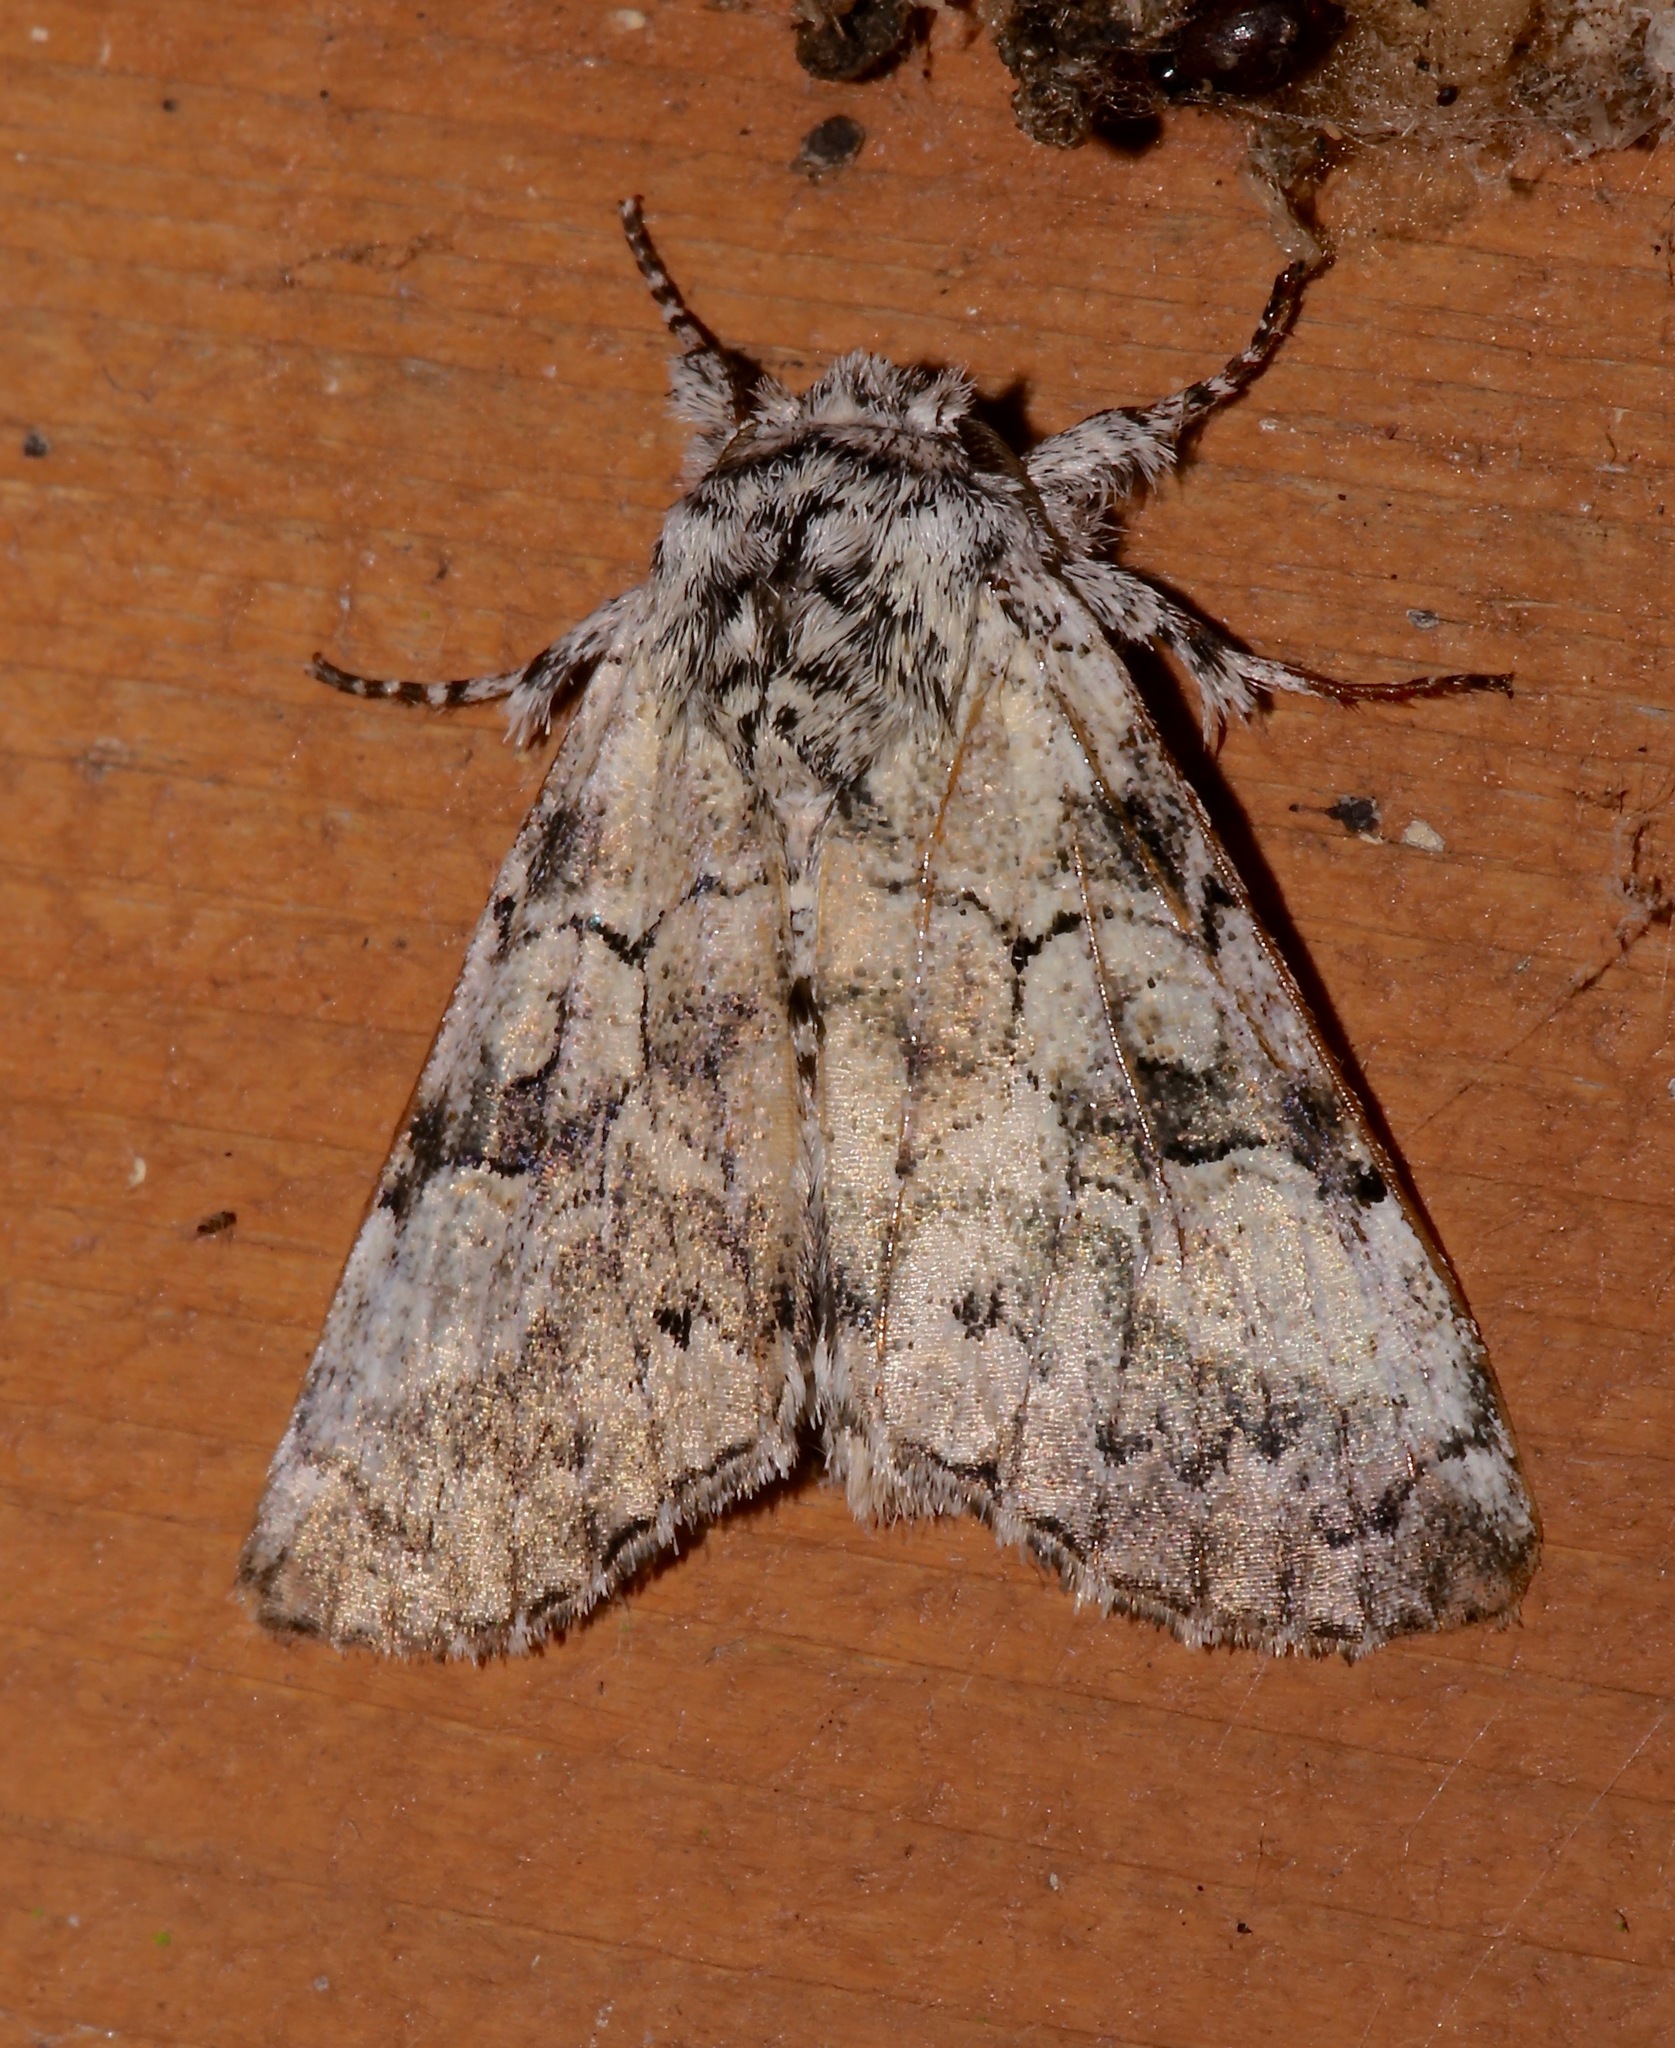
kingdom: Animalia
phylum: Arthropoda
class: Insecta
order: Lepidoptera
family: Noctuidae
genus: Charadra
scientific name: Charadra deridens
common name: Marbled tuffet
